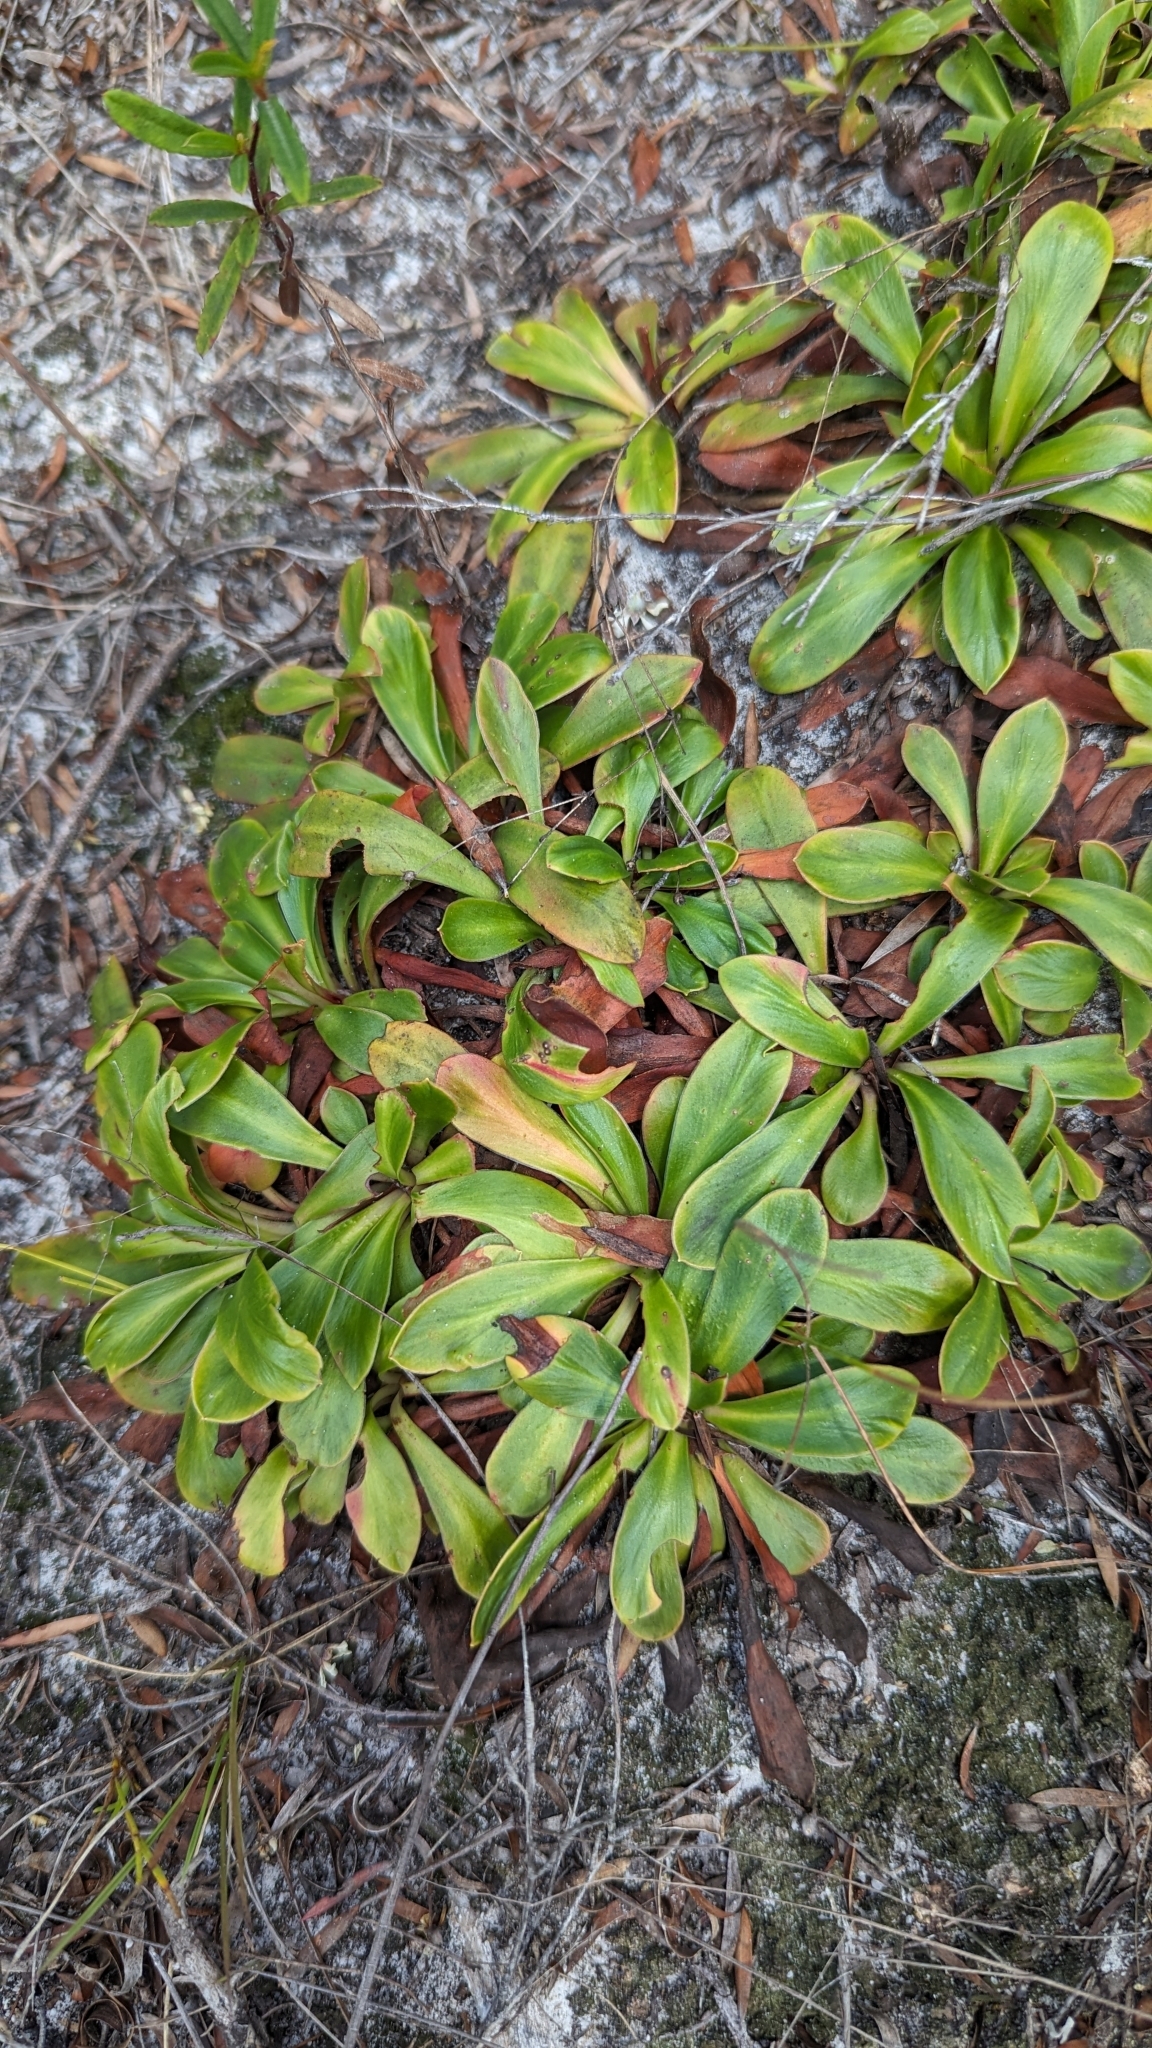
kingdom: Plantae
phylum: Tracheophyta
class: Magnoliopsida
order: Asterales
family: Stylidiaceae
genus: Stylidium
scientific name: Stylidium ornatum
